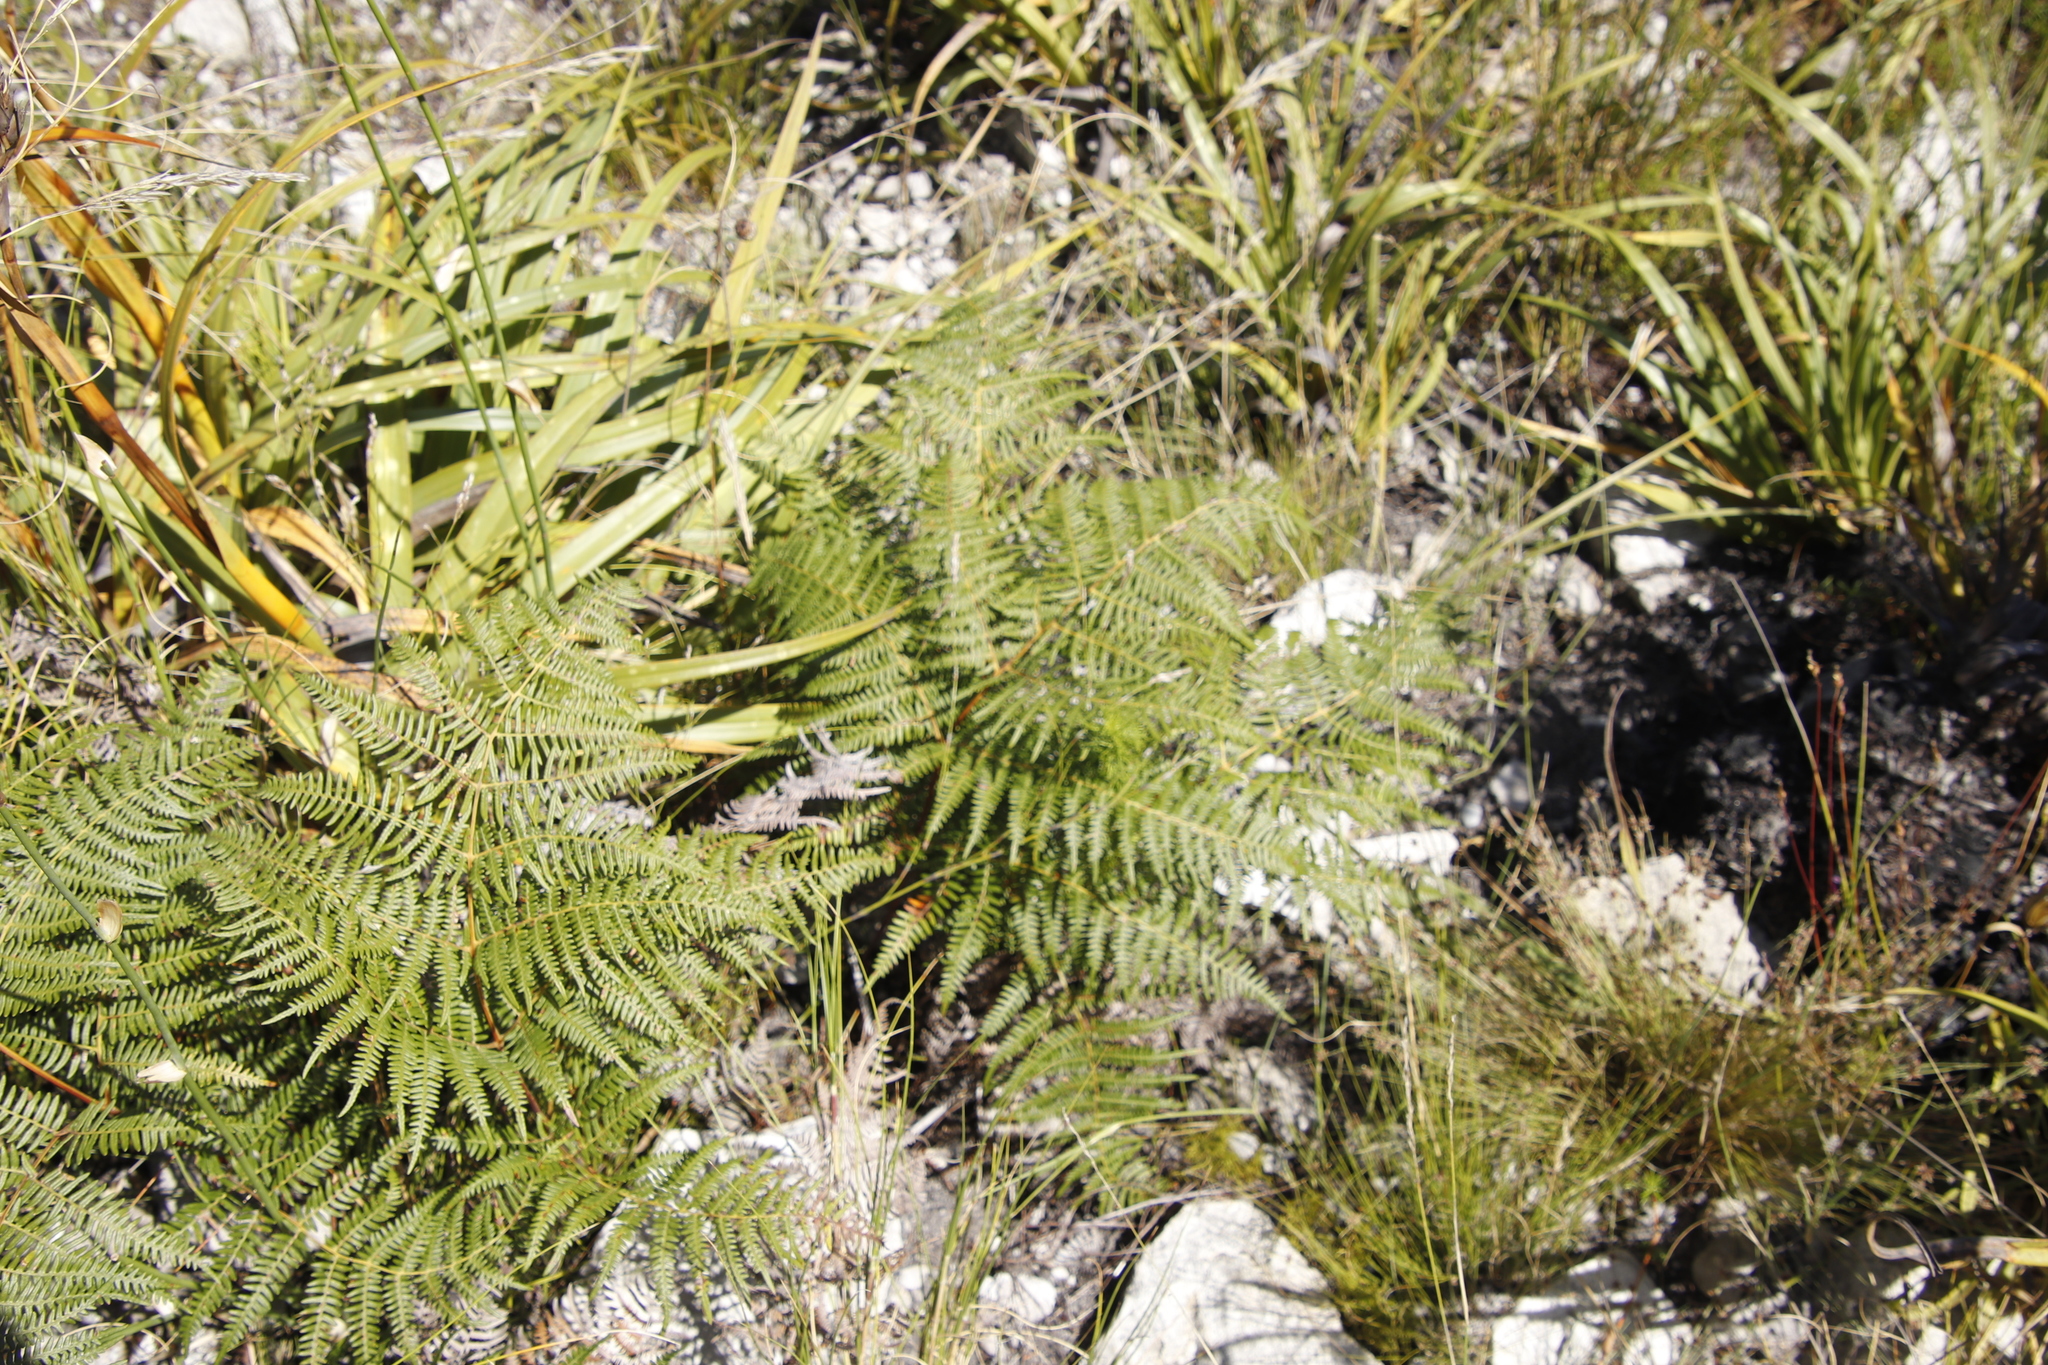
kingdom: Plantae
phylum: Tracheophyta
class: Polypodiopsida
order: Polypodiales
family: Dennstaedtiaceae
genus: Pteridium
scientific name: Pteridium aquilinum
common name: Bracken
